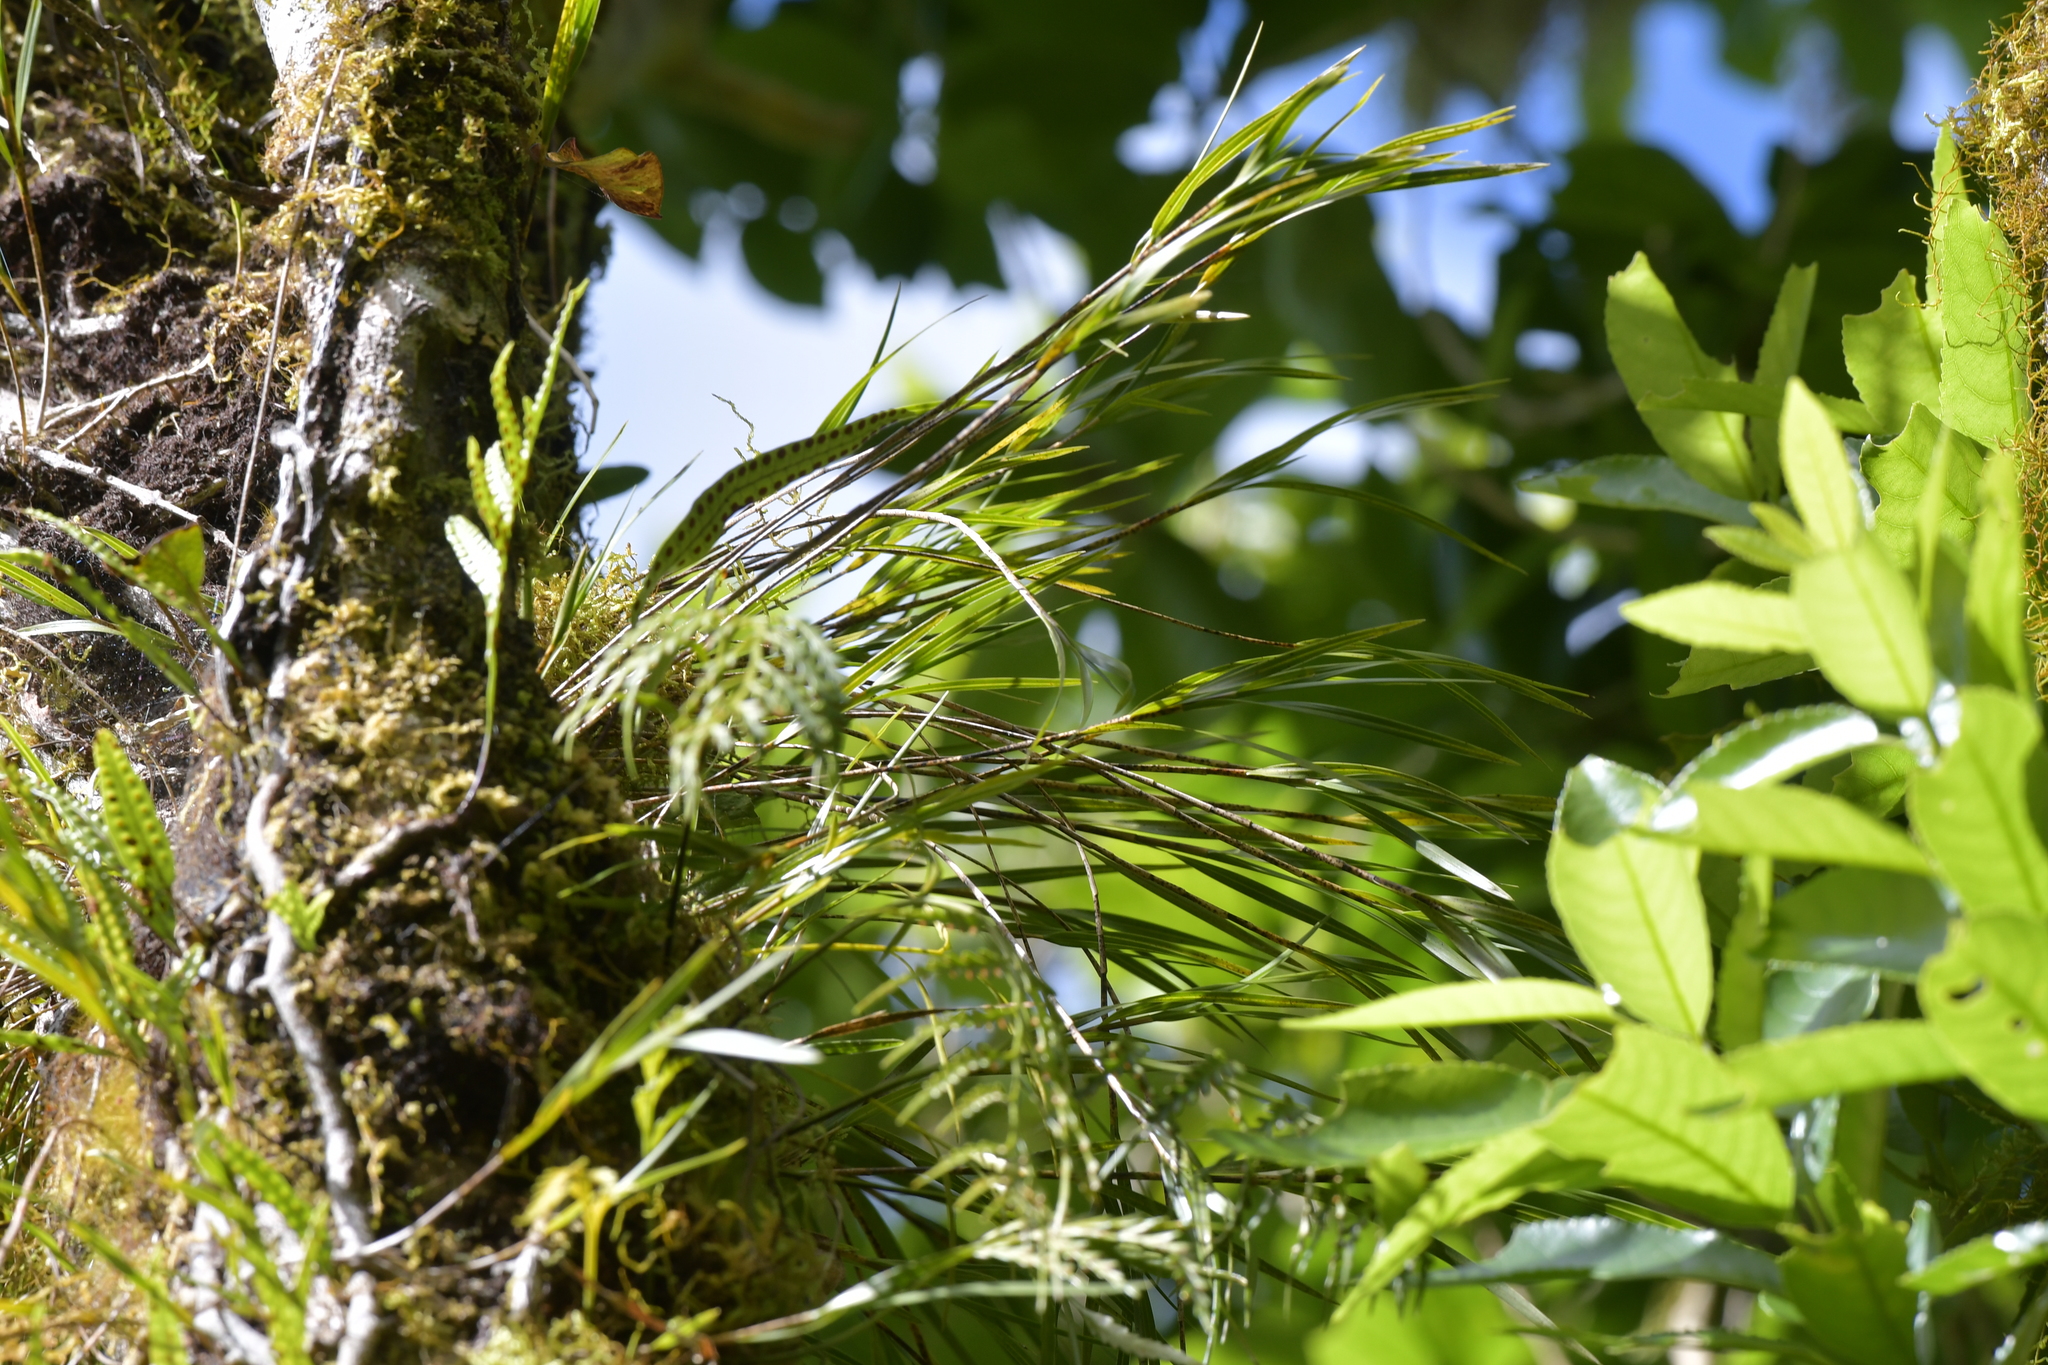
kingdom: Plantae
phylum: Tracheophyta
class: Liliopsida
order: Asparagales
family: Orchidaceae
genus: Earina
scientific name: Earina mucronata
